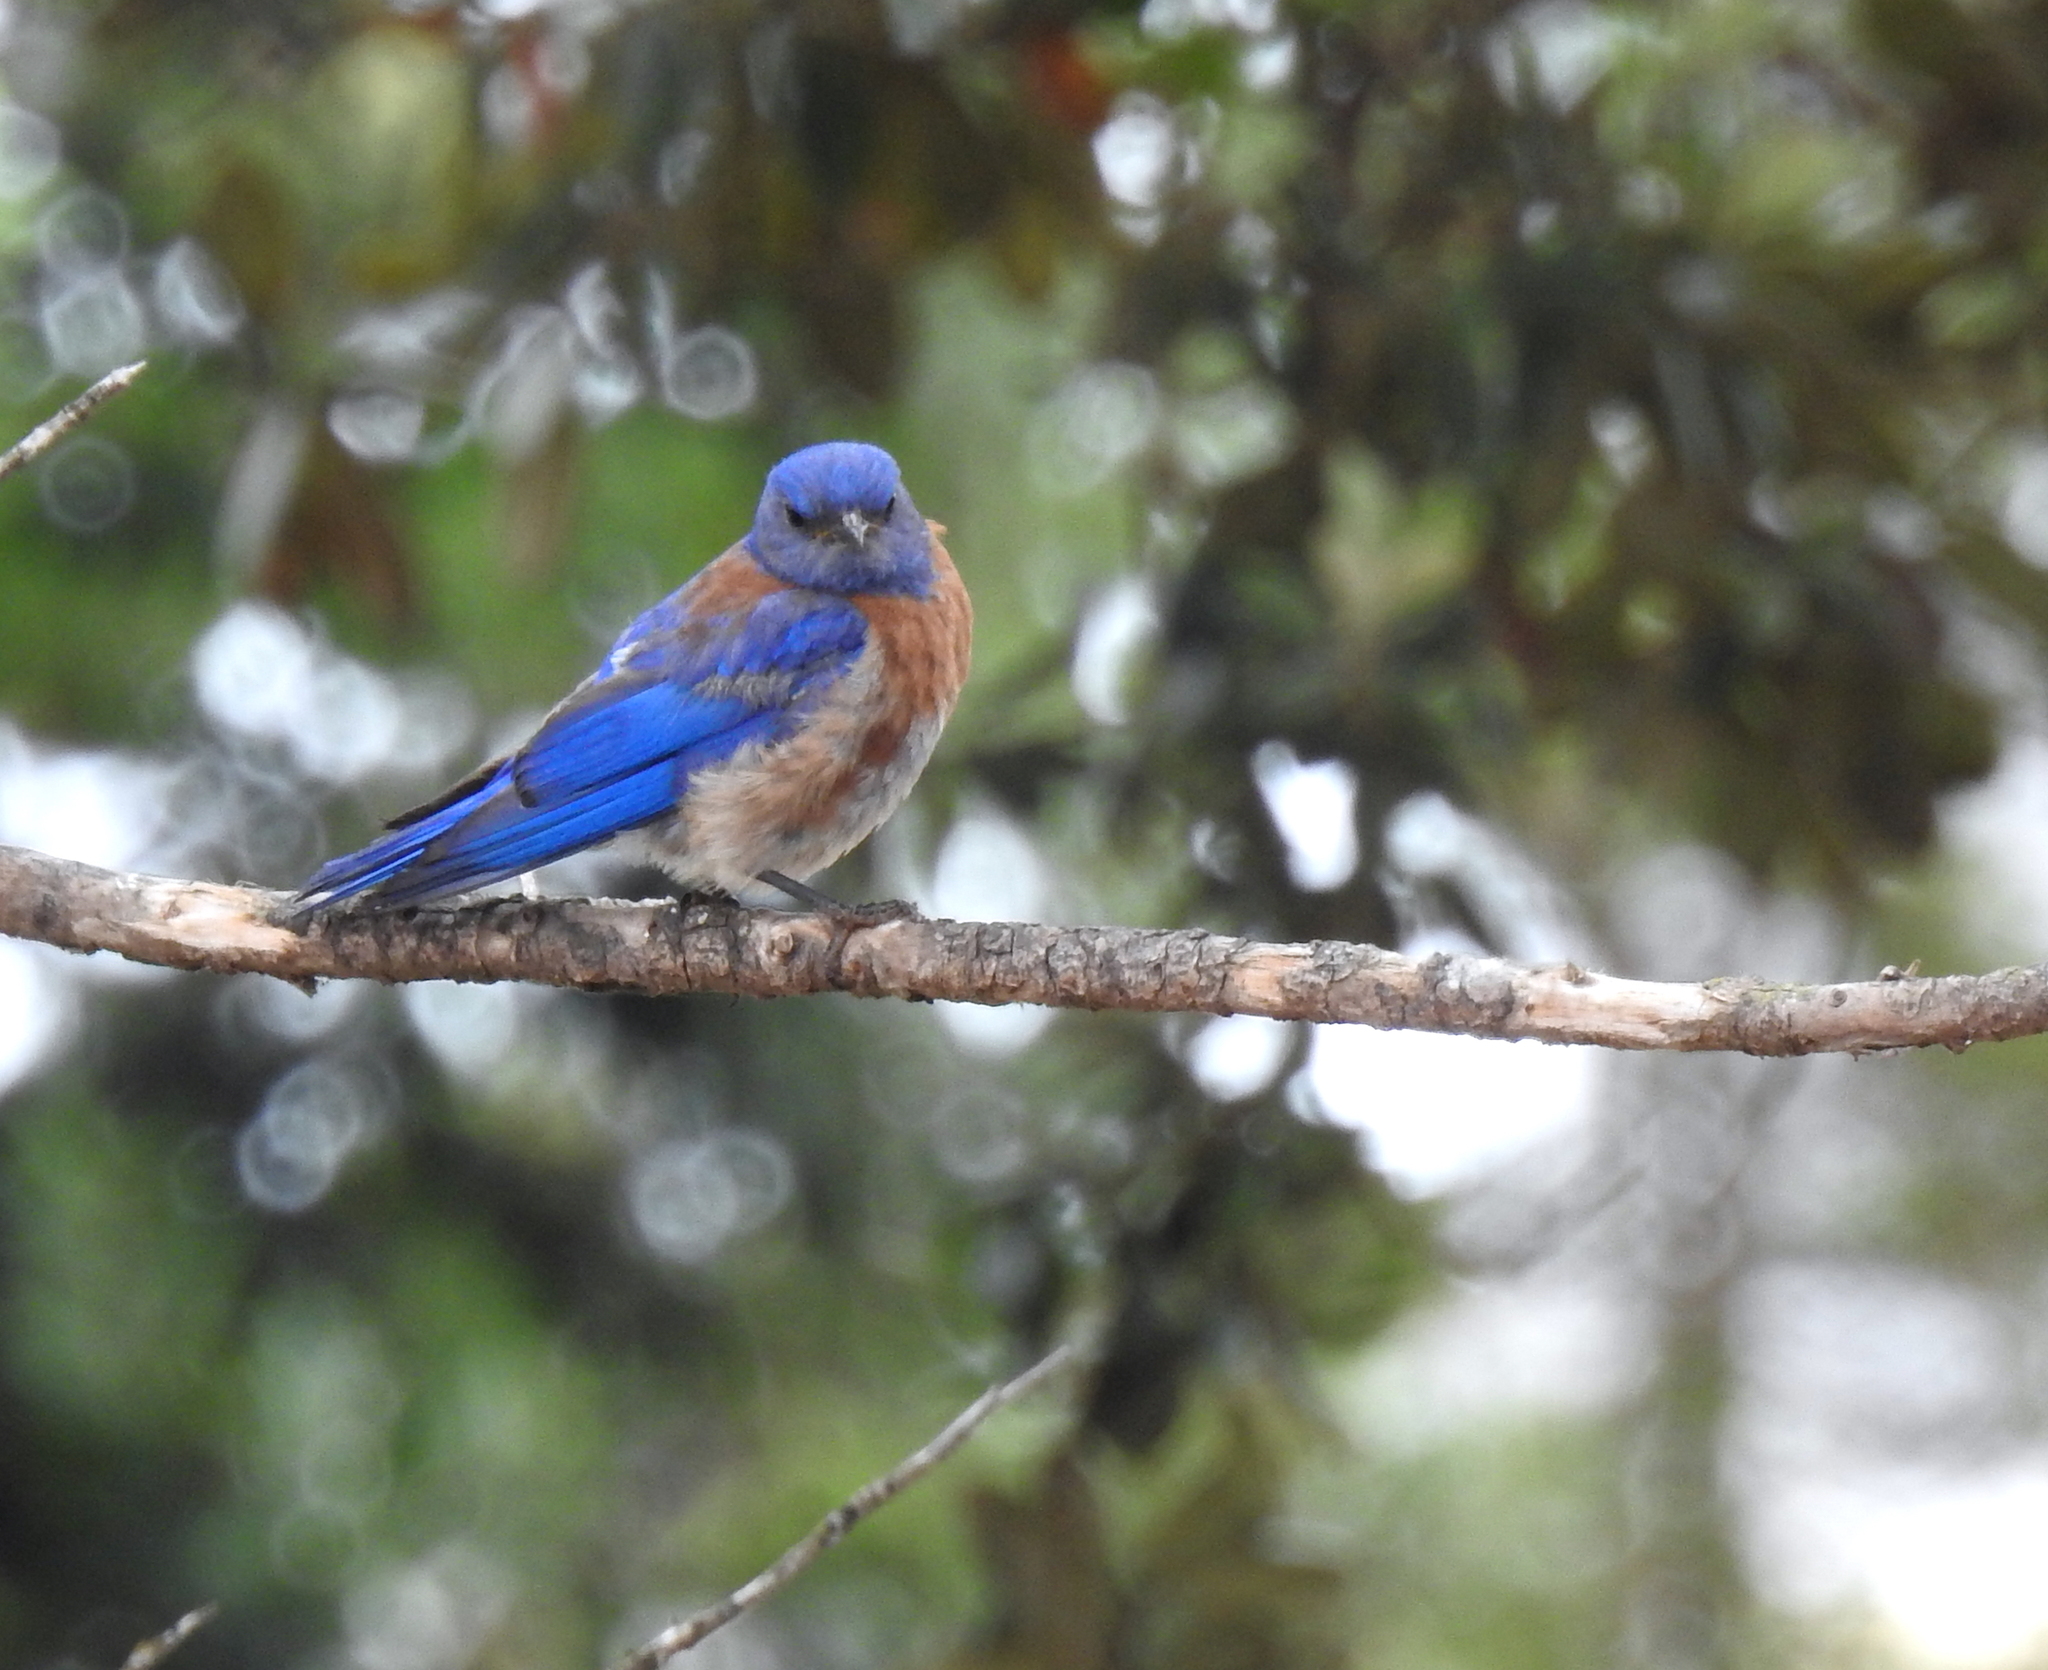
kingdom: Animalia
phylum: Chordata
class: Aves
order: Passeriformes
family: Turdidae
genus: Sialia
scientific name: Sialia mexicana
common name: Western bluebird
